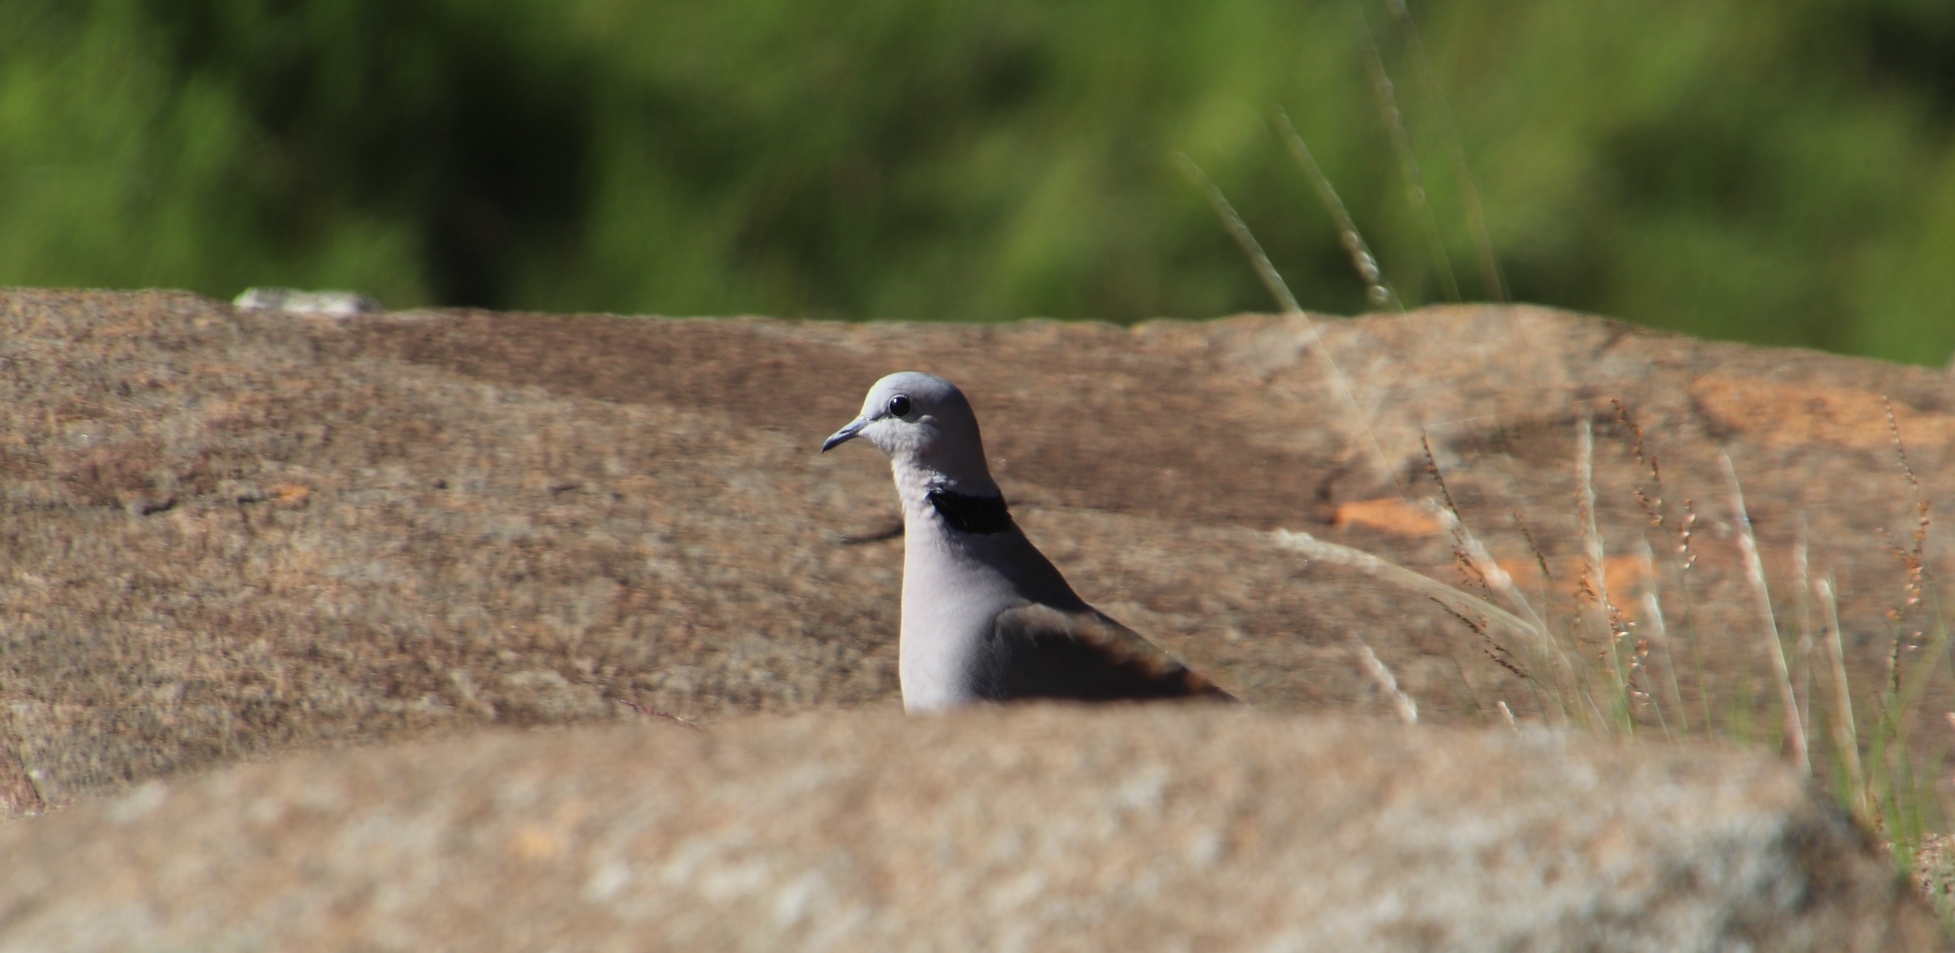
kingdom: Animalia
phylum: Chordata
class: Aves
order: Columbiformes
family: Columbidae
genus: Streptopelia
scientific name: Streptopelia capicola
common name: Ring-necked dove
